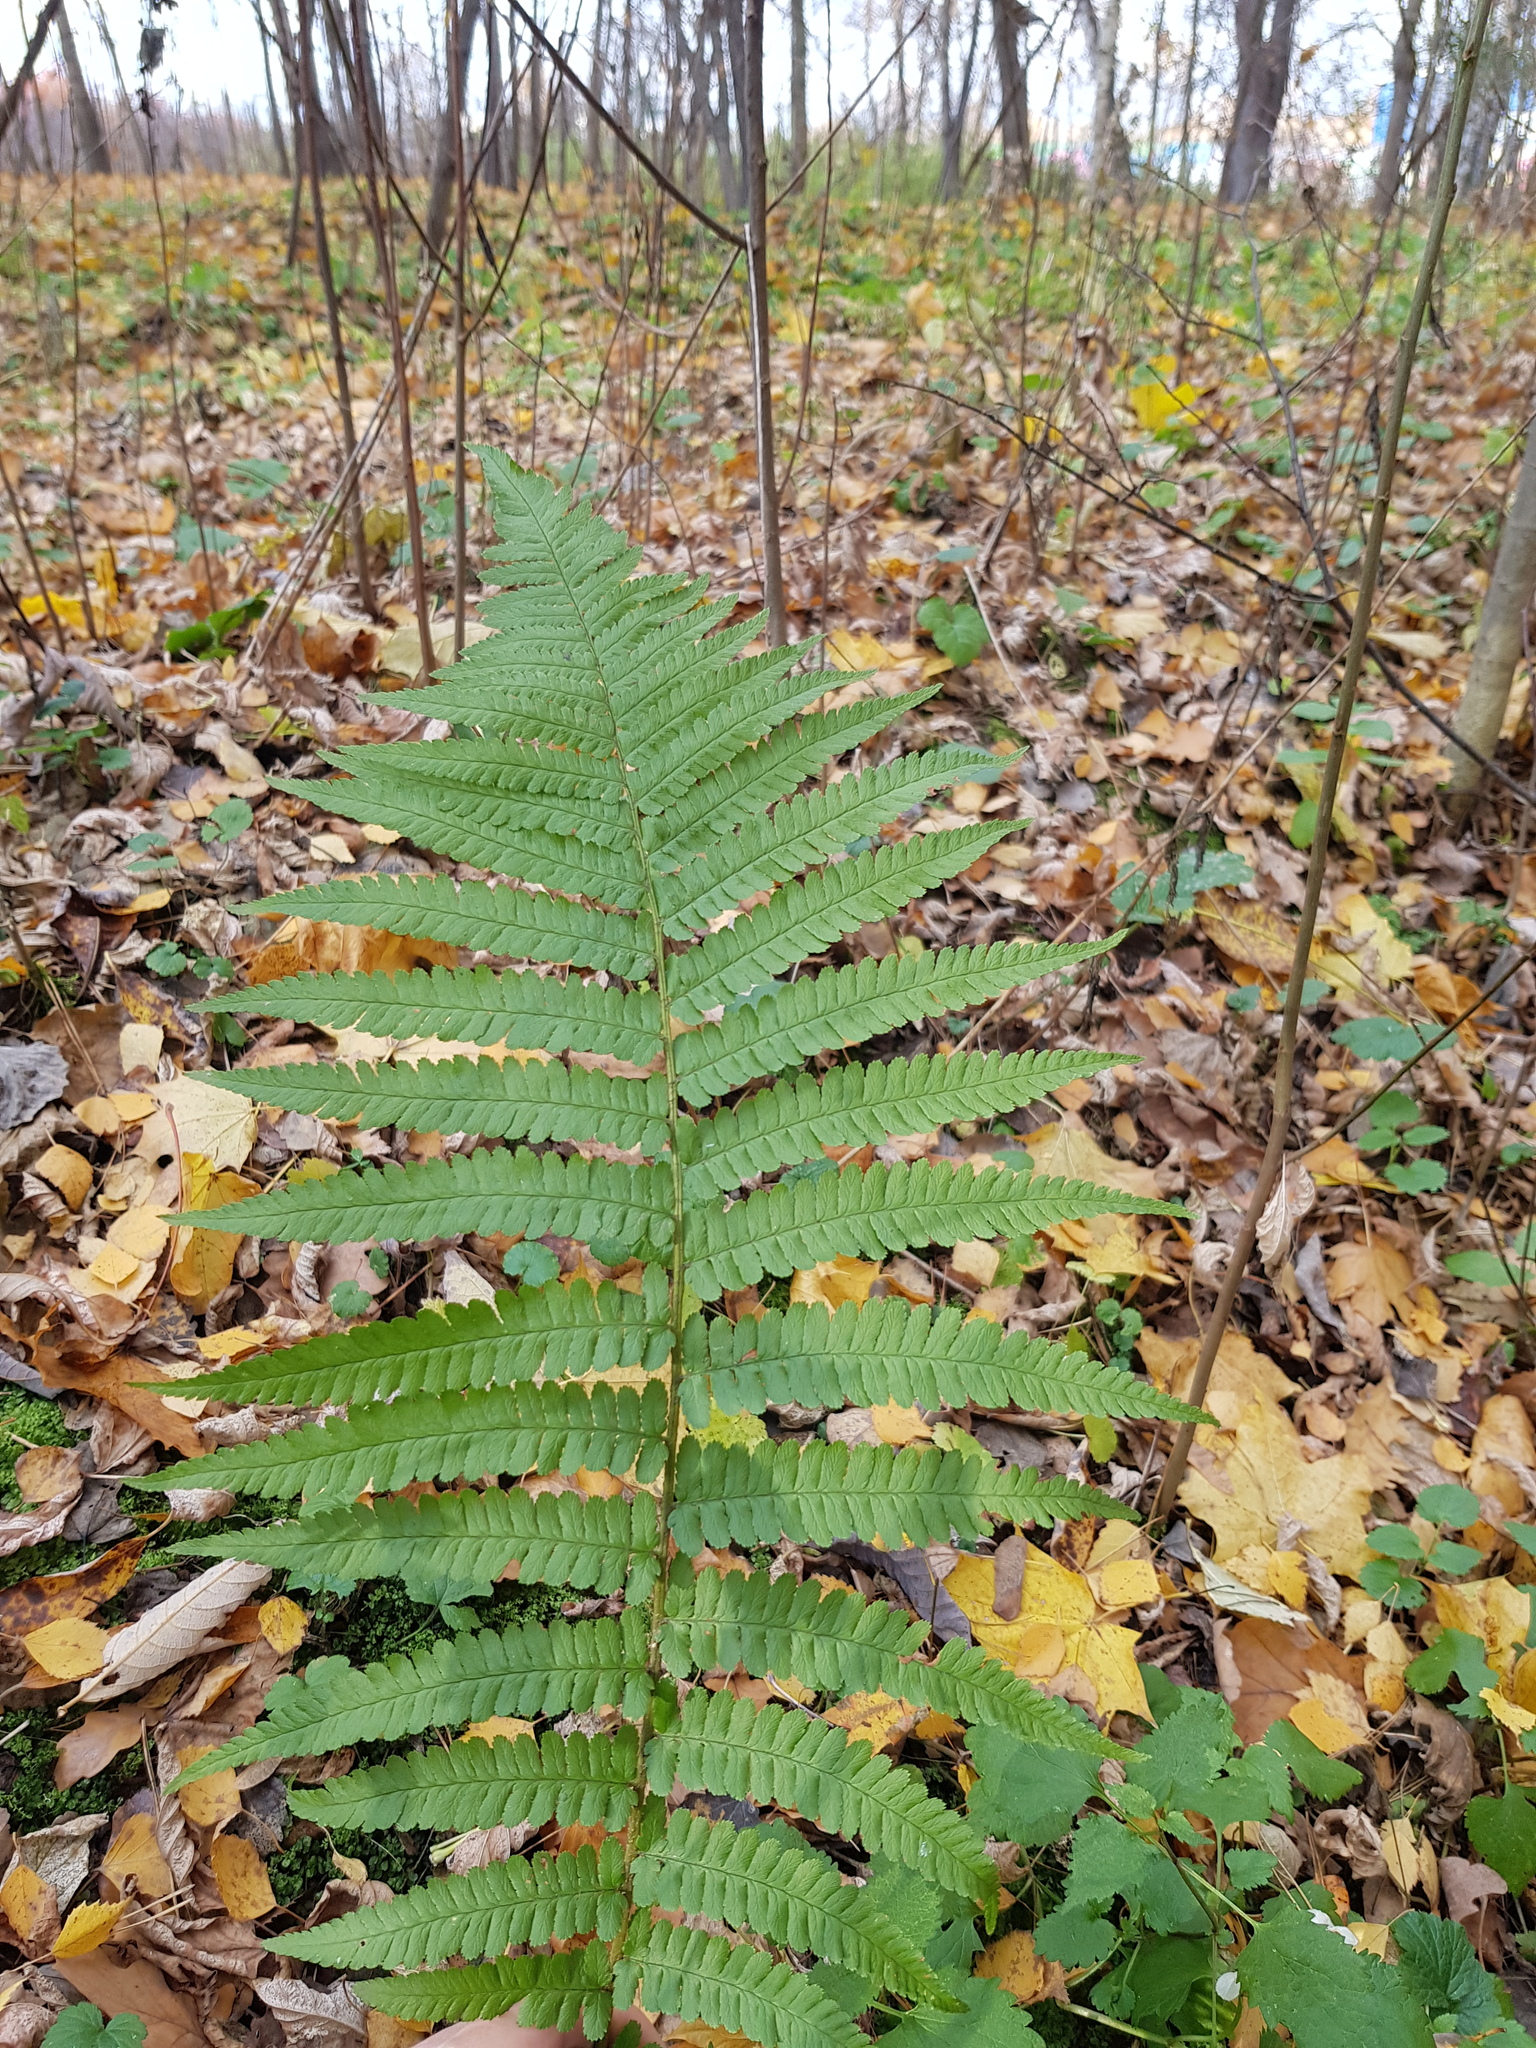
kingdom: Plantae
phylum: Tracheophyta
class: Polypodiopsida
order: Polypodiales
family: Dryopteridaceae
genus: Dryopteris
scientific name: Dryopteris filix-mas
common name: Male fern
